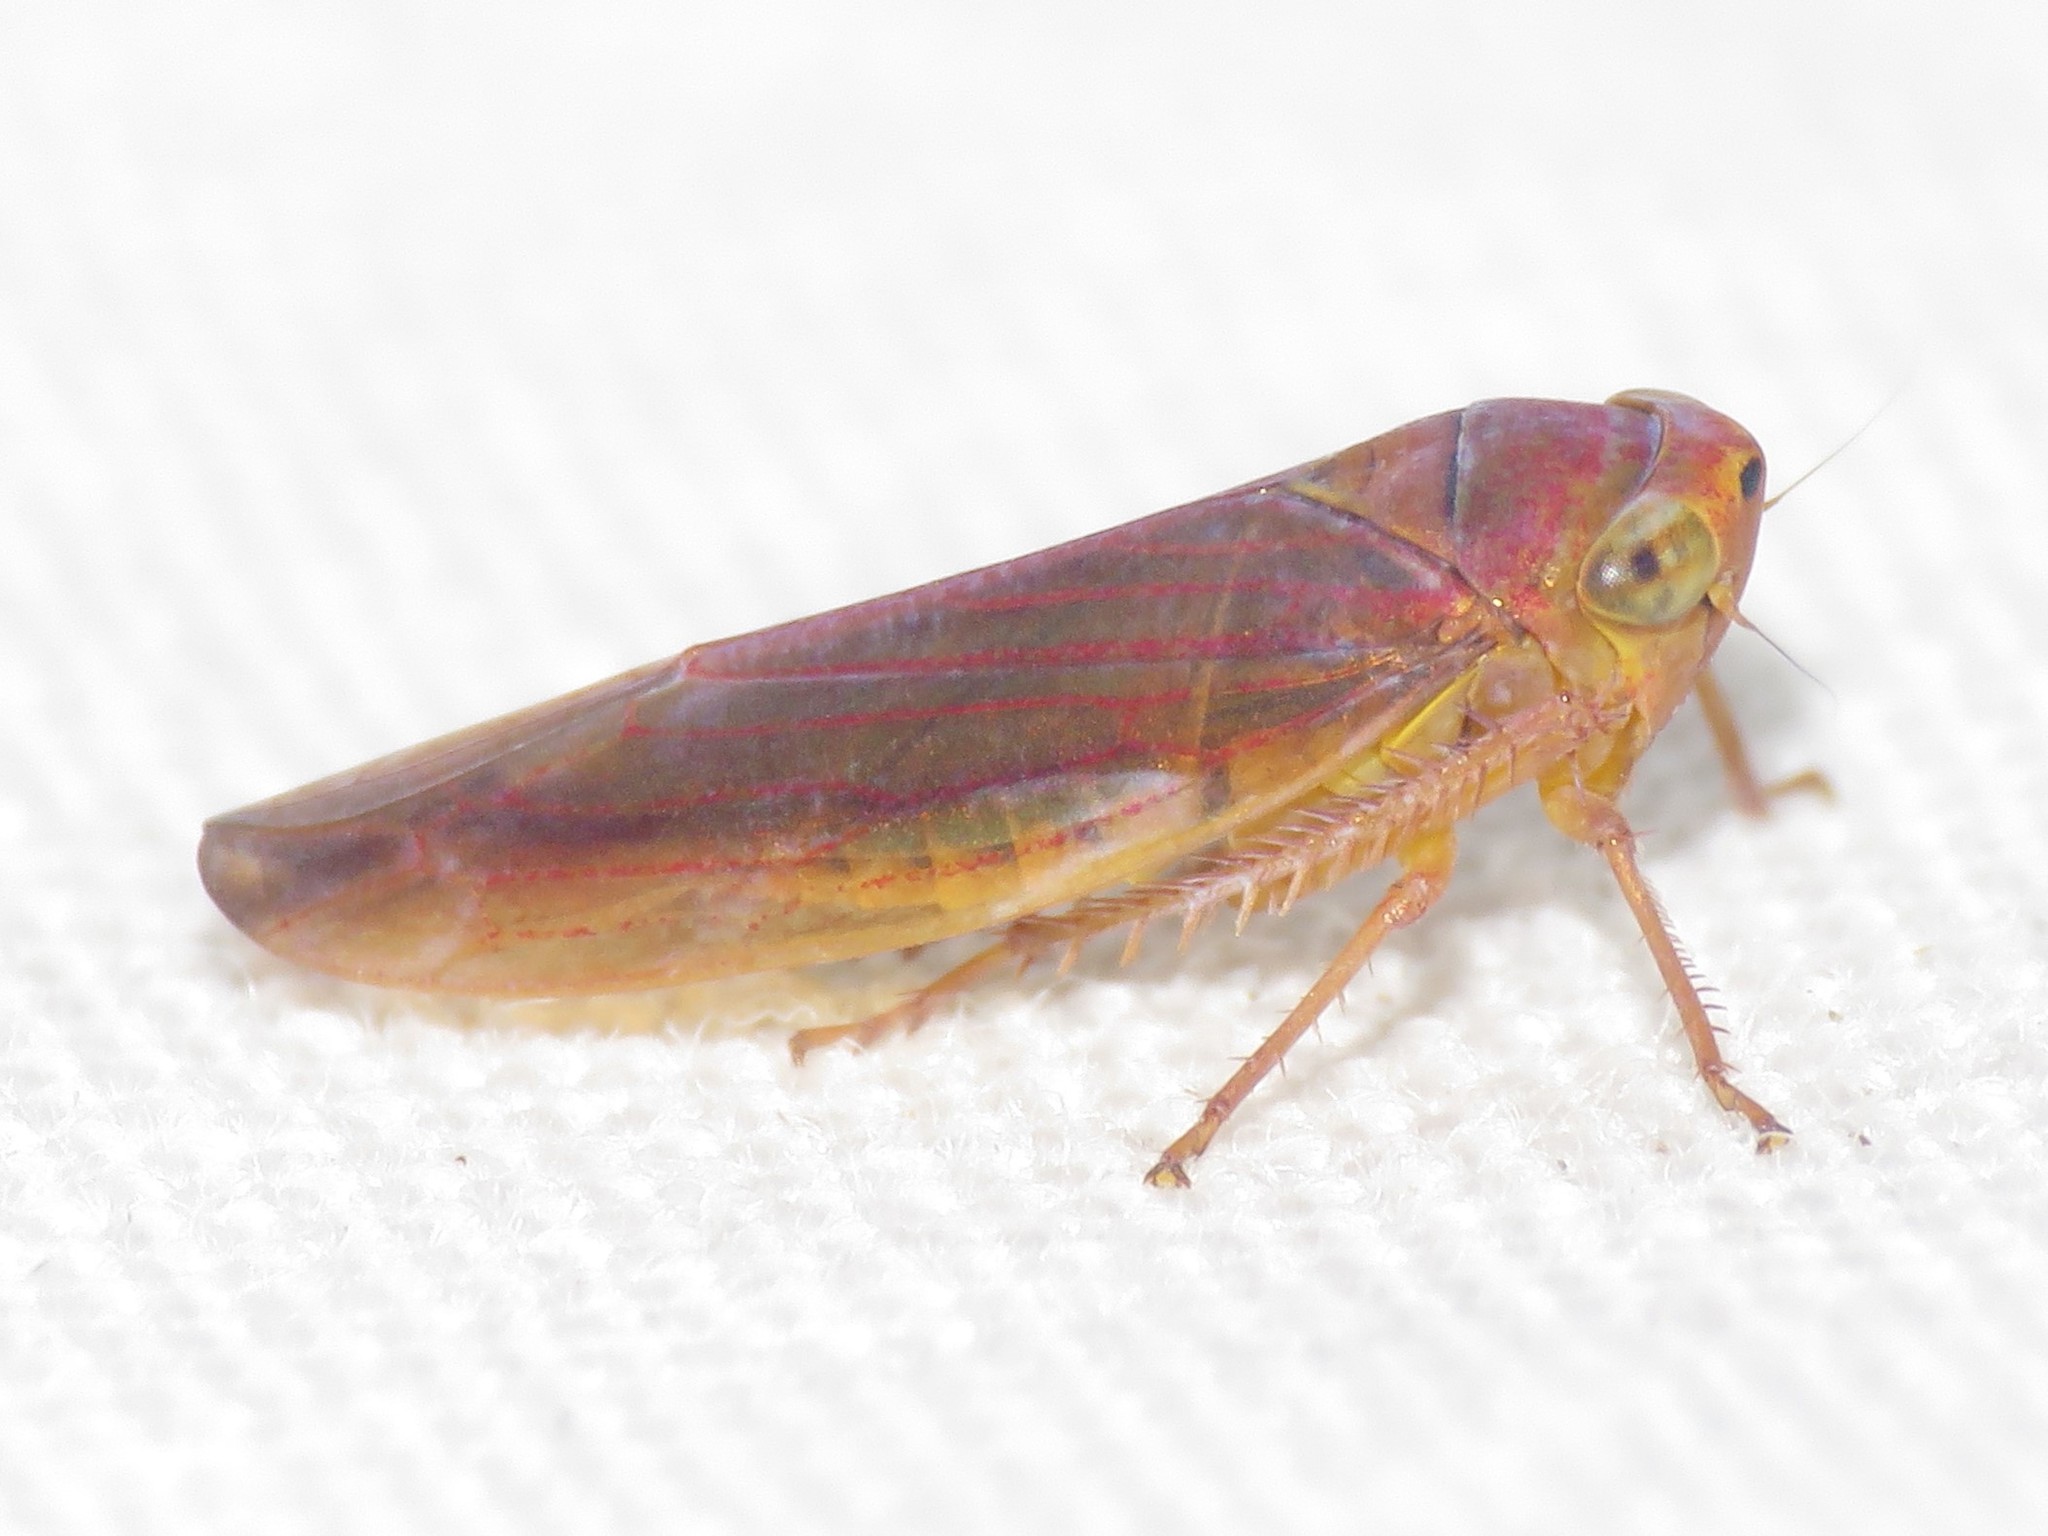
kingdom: Animalia
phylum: Arthropoda
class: Insecta
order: Hemiptera
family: Cicadellidae
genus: Idiodonus
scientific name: Idiodonus morsei
